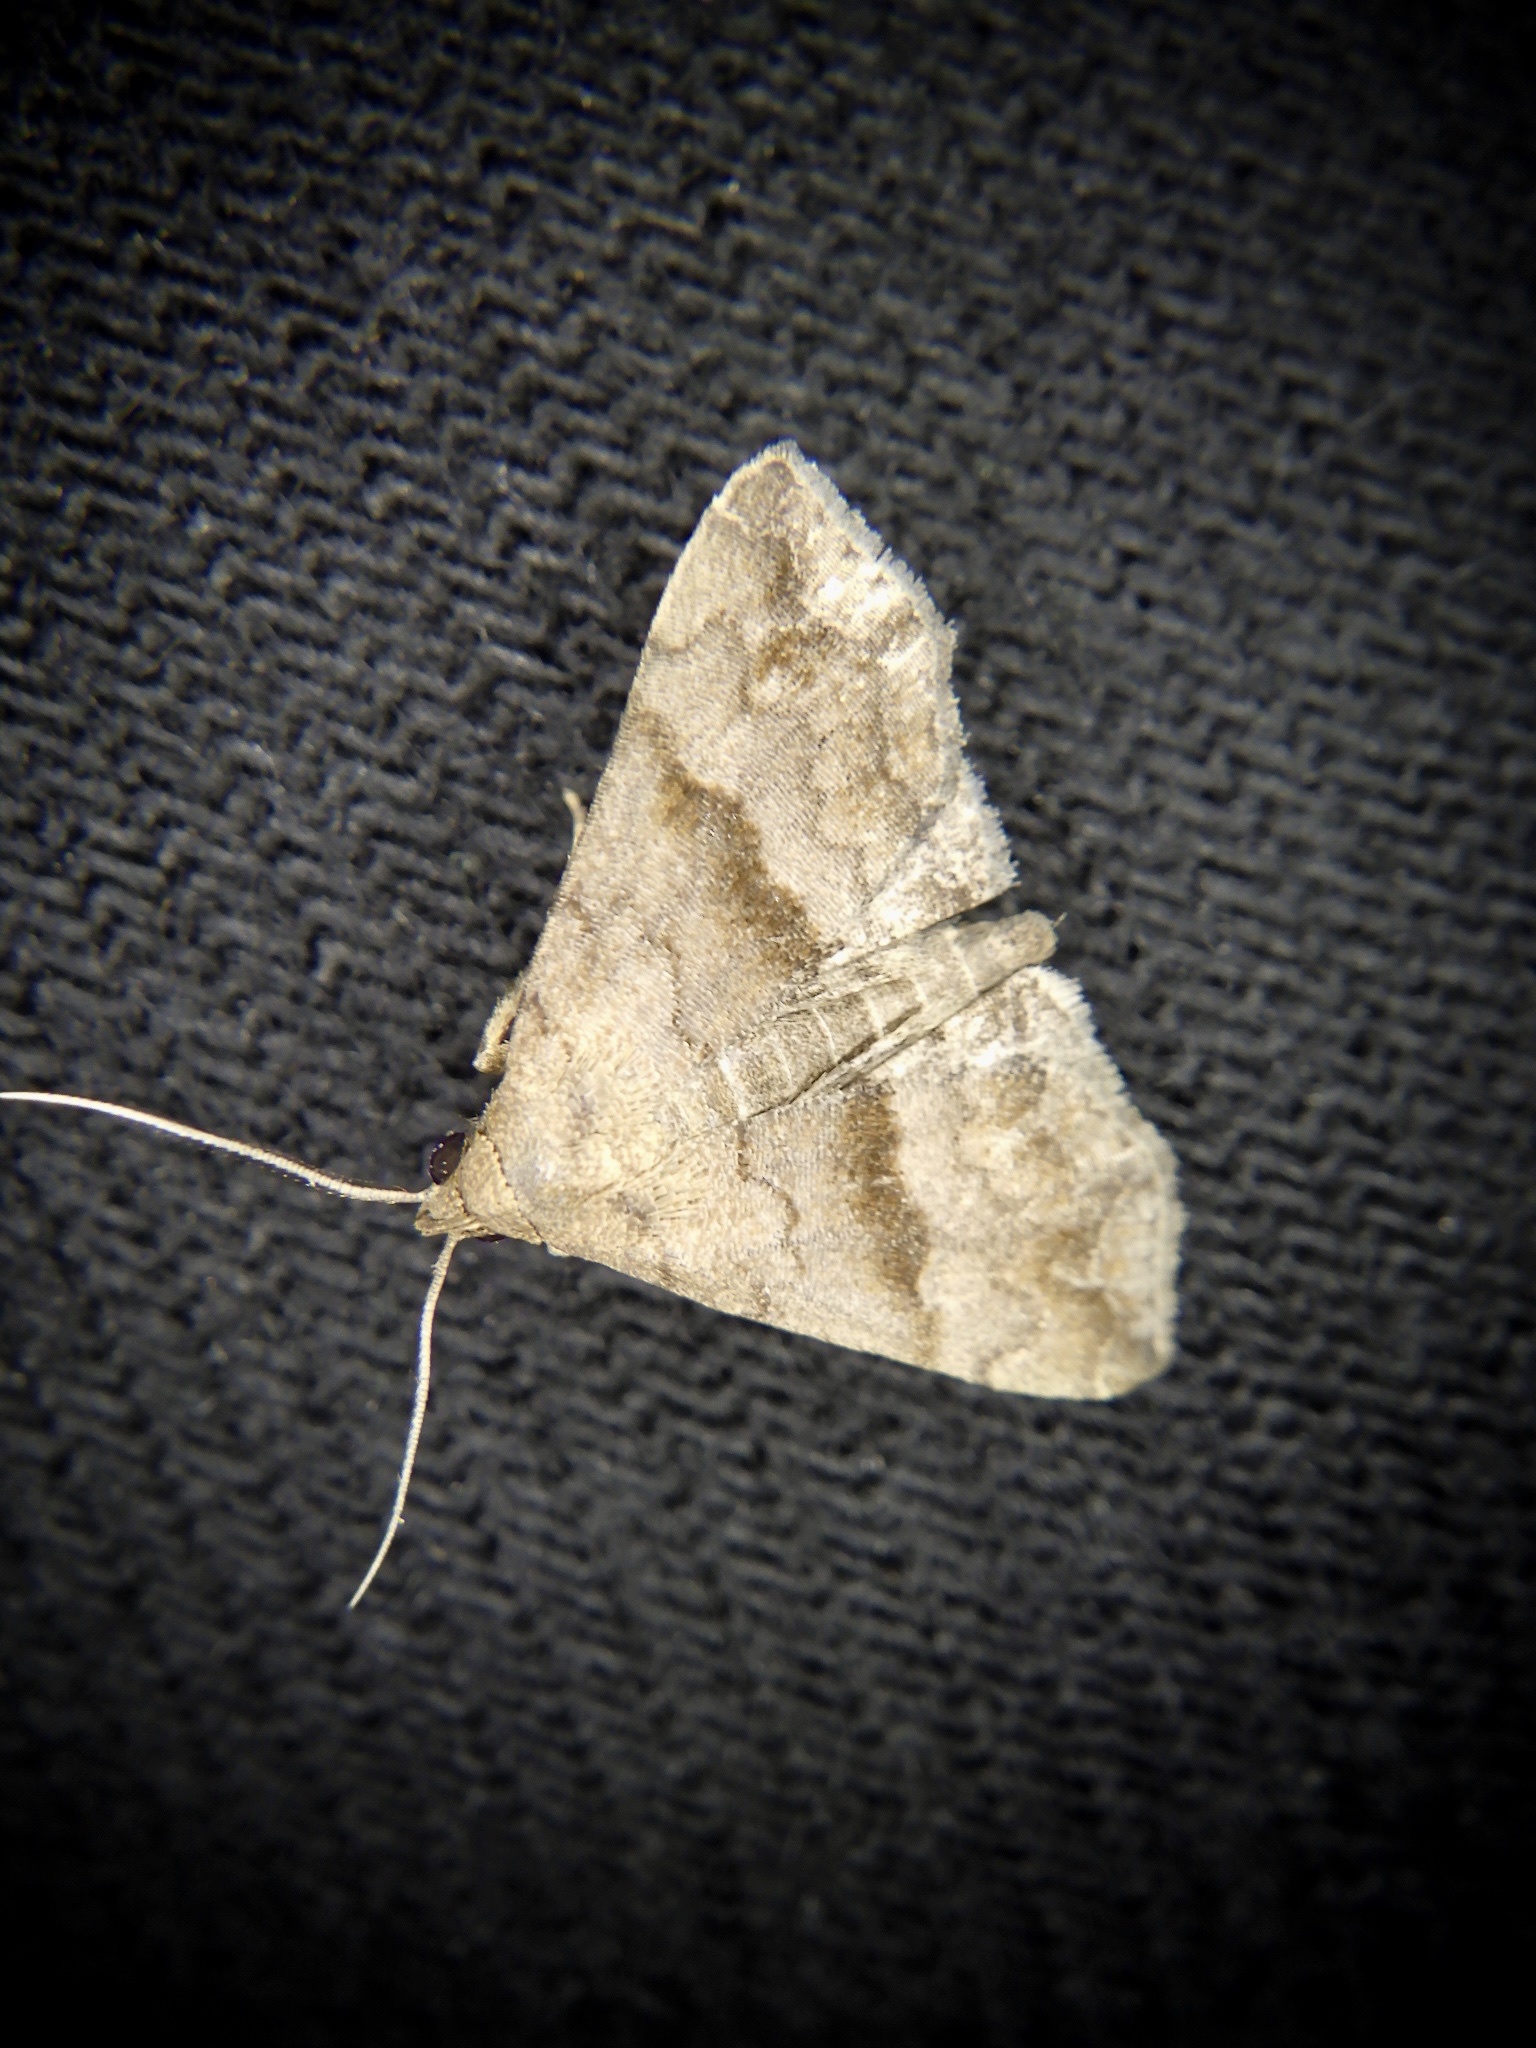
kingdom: Animalia
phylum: Arthropoda
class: Insecta
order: Lepidoptera
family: Erebidae
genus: Polypogon
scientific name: Polypogon Hipoepa fractalis
